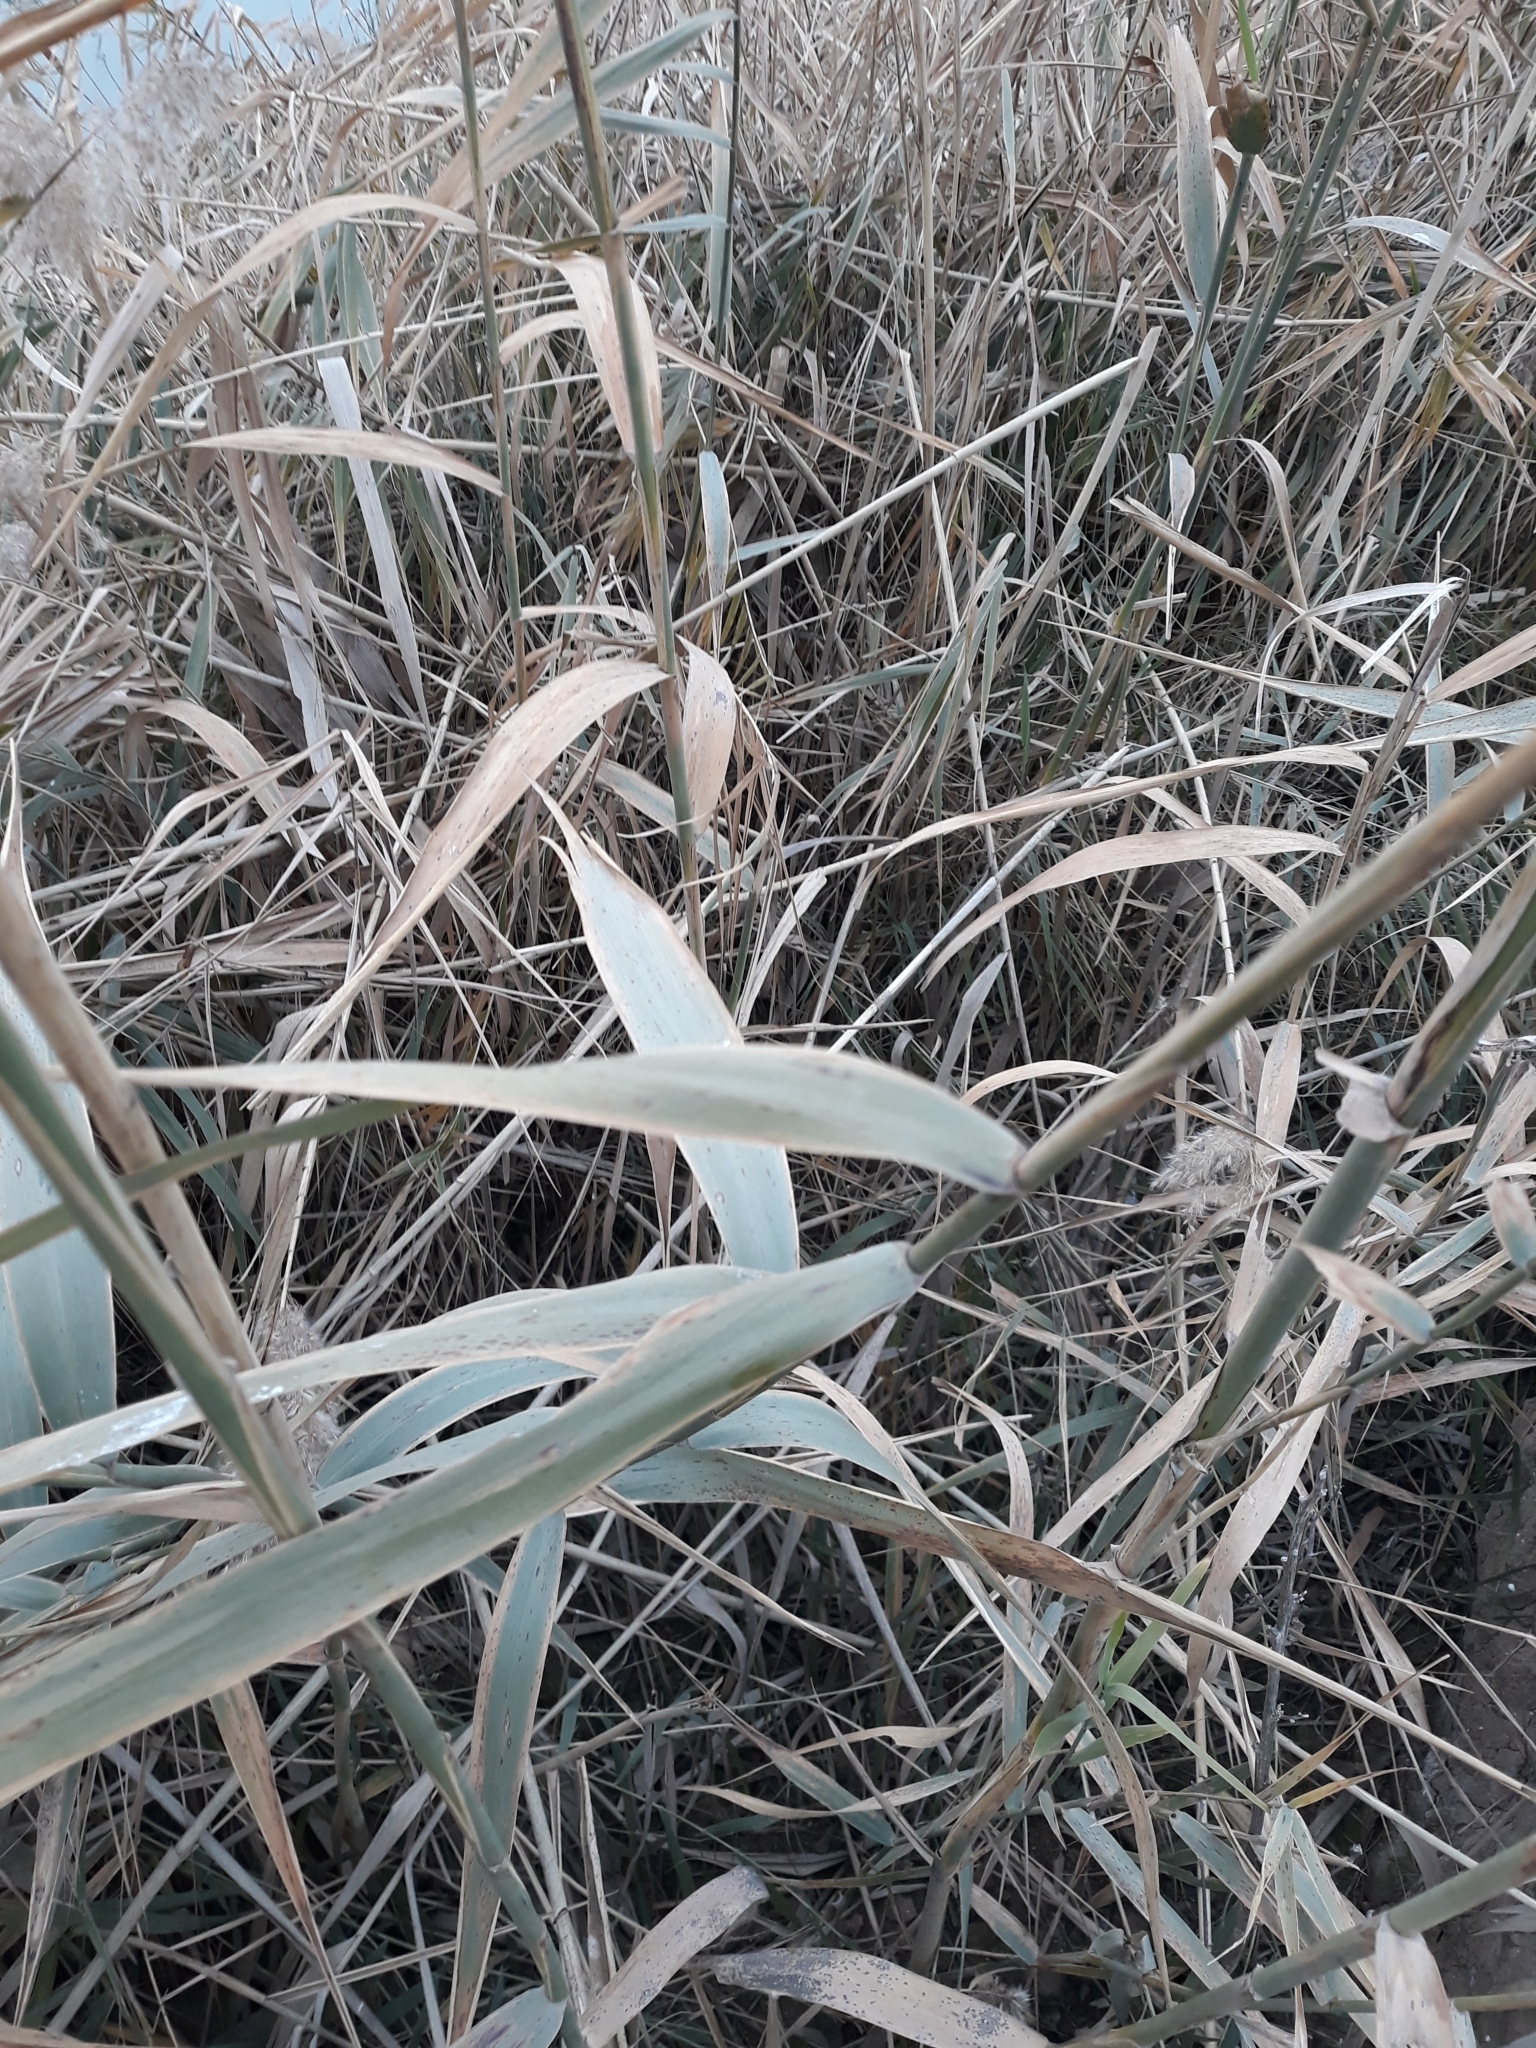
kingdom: Plantae
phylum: Tracheophyta
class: Liliopsida
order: Poales
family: Poaceae
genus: Phragmites
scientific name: Phragmites australis
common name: Common reed
